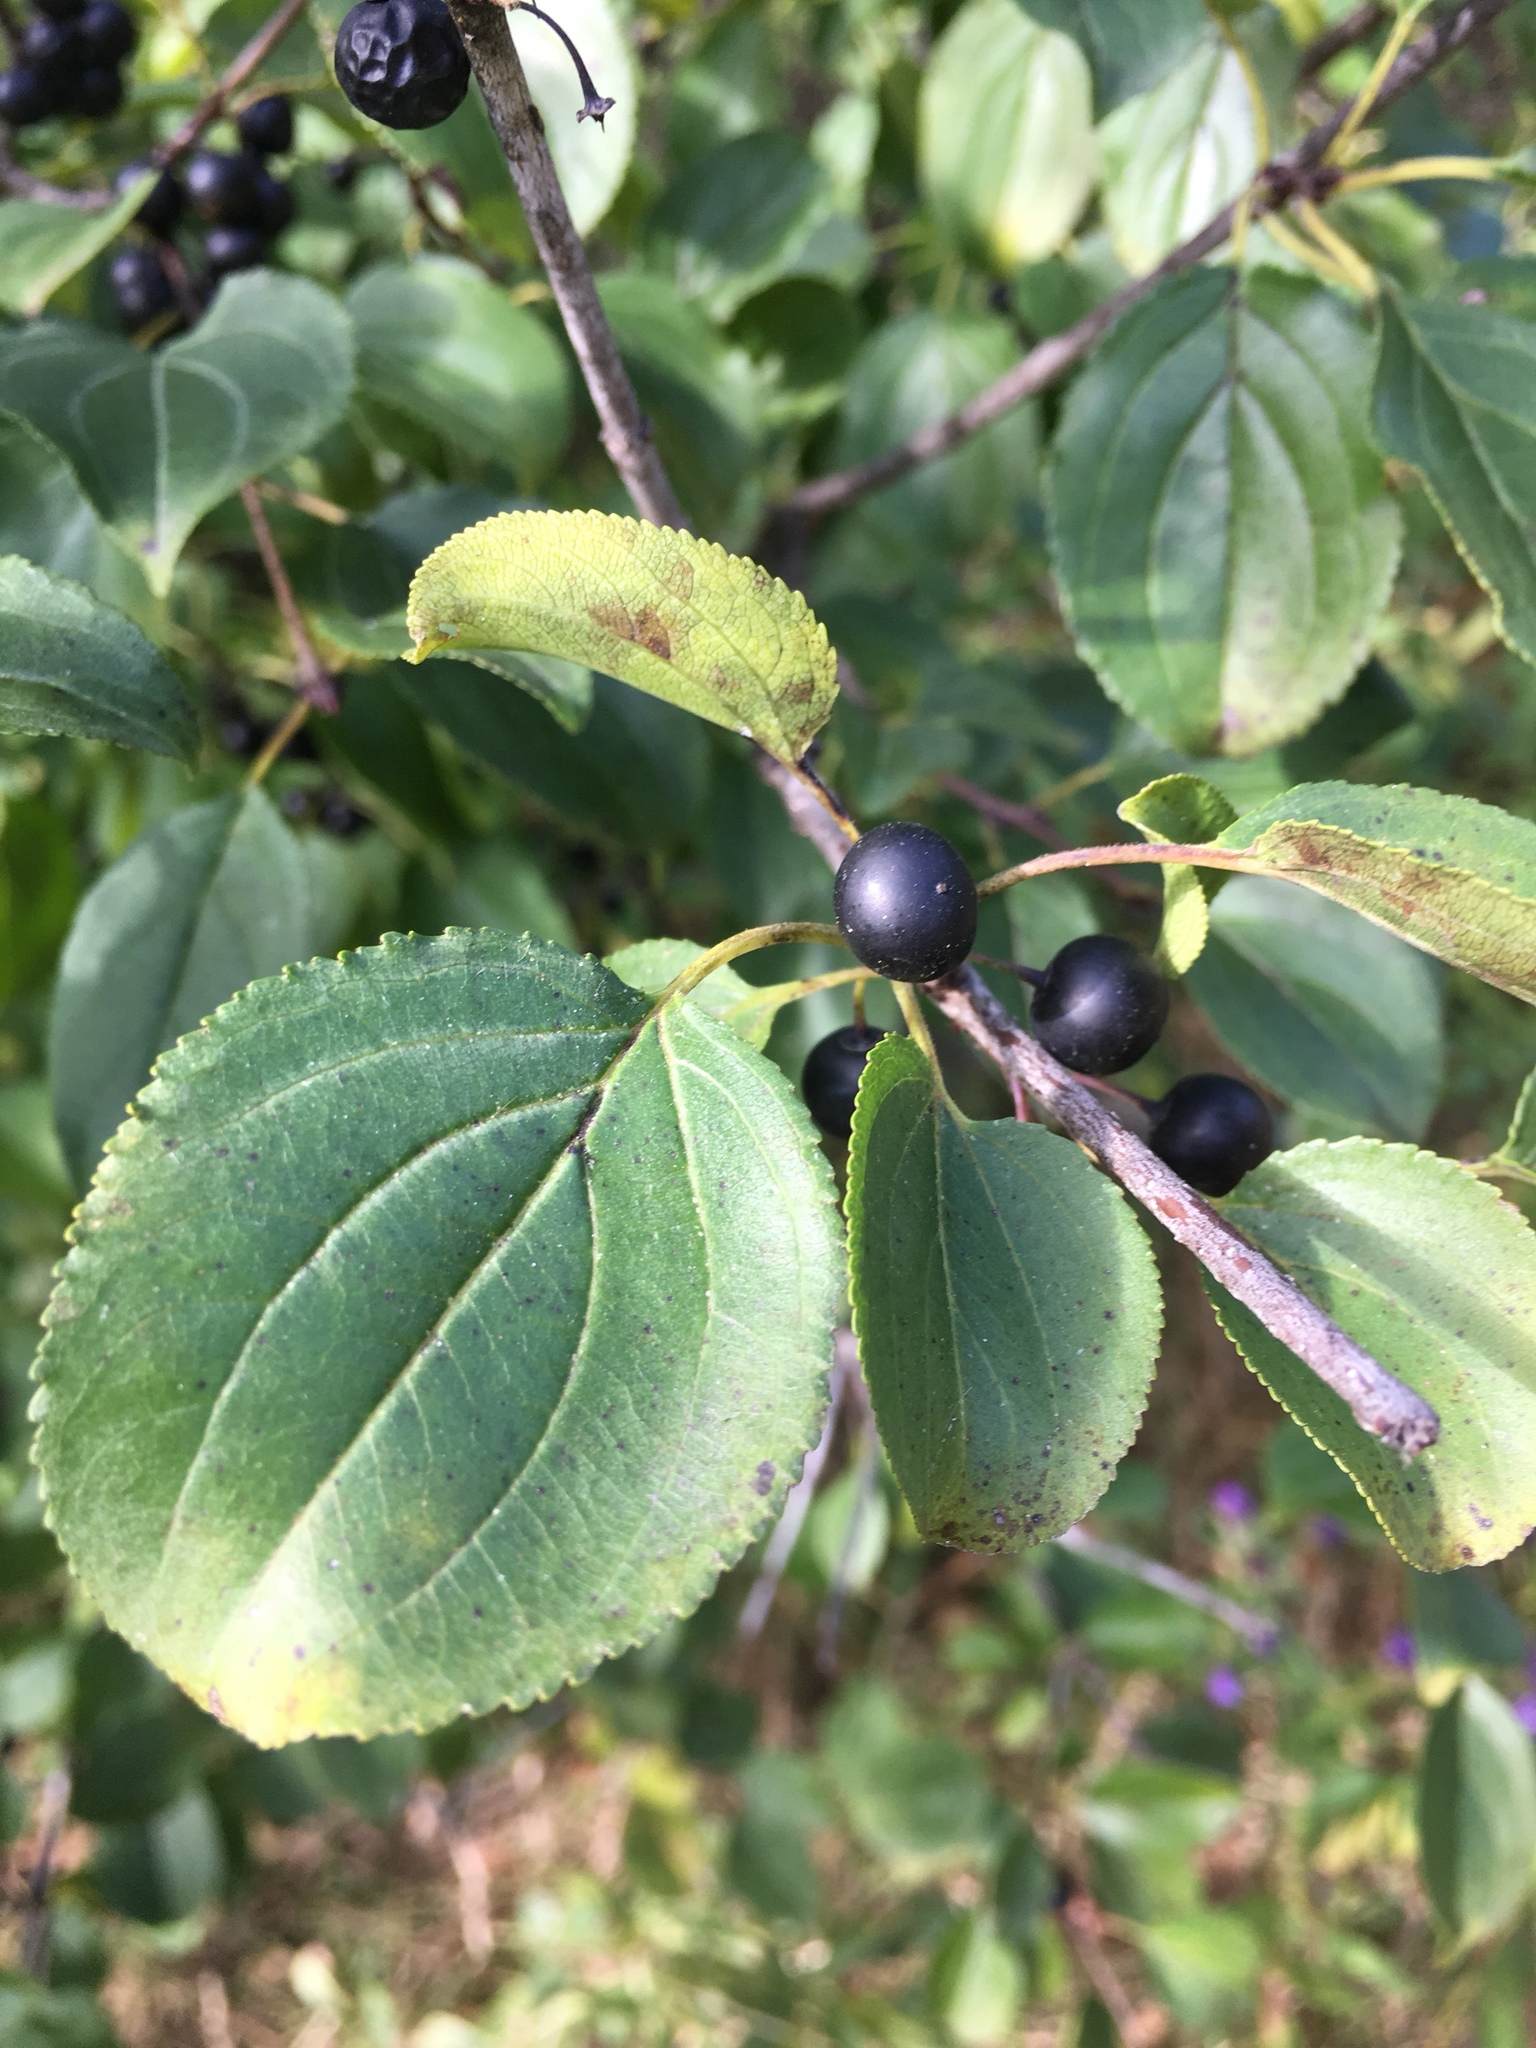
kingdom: Plantae
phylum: Tracheophyta
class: Magnoliopsida
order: Rosales
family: Rhamnaceae
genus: Rhamnus
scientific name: Rhamnus cathartica
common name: Common buckthorn
